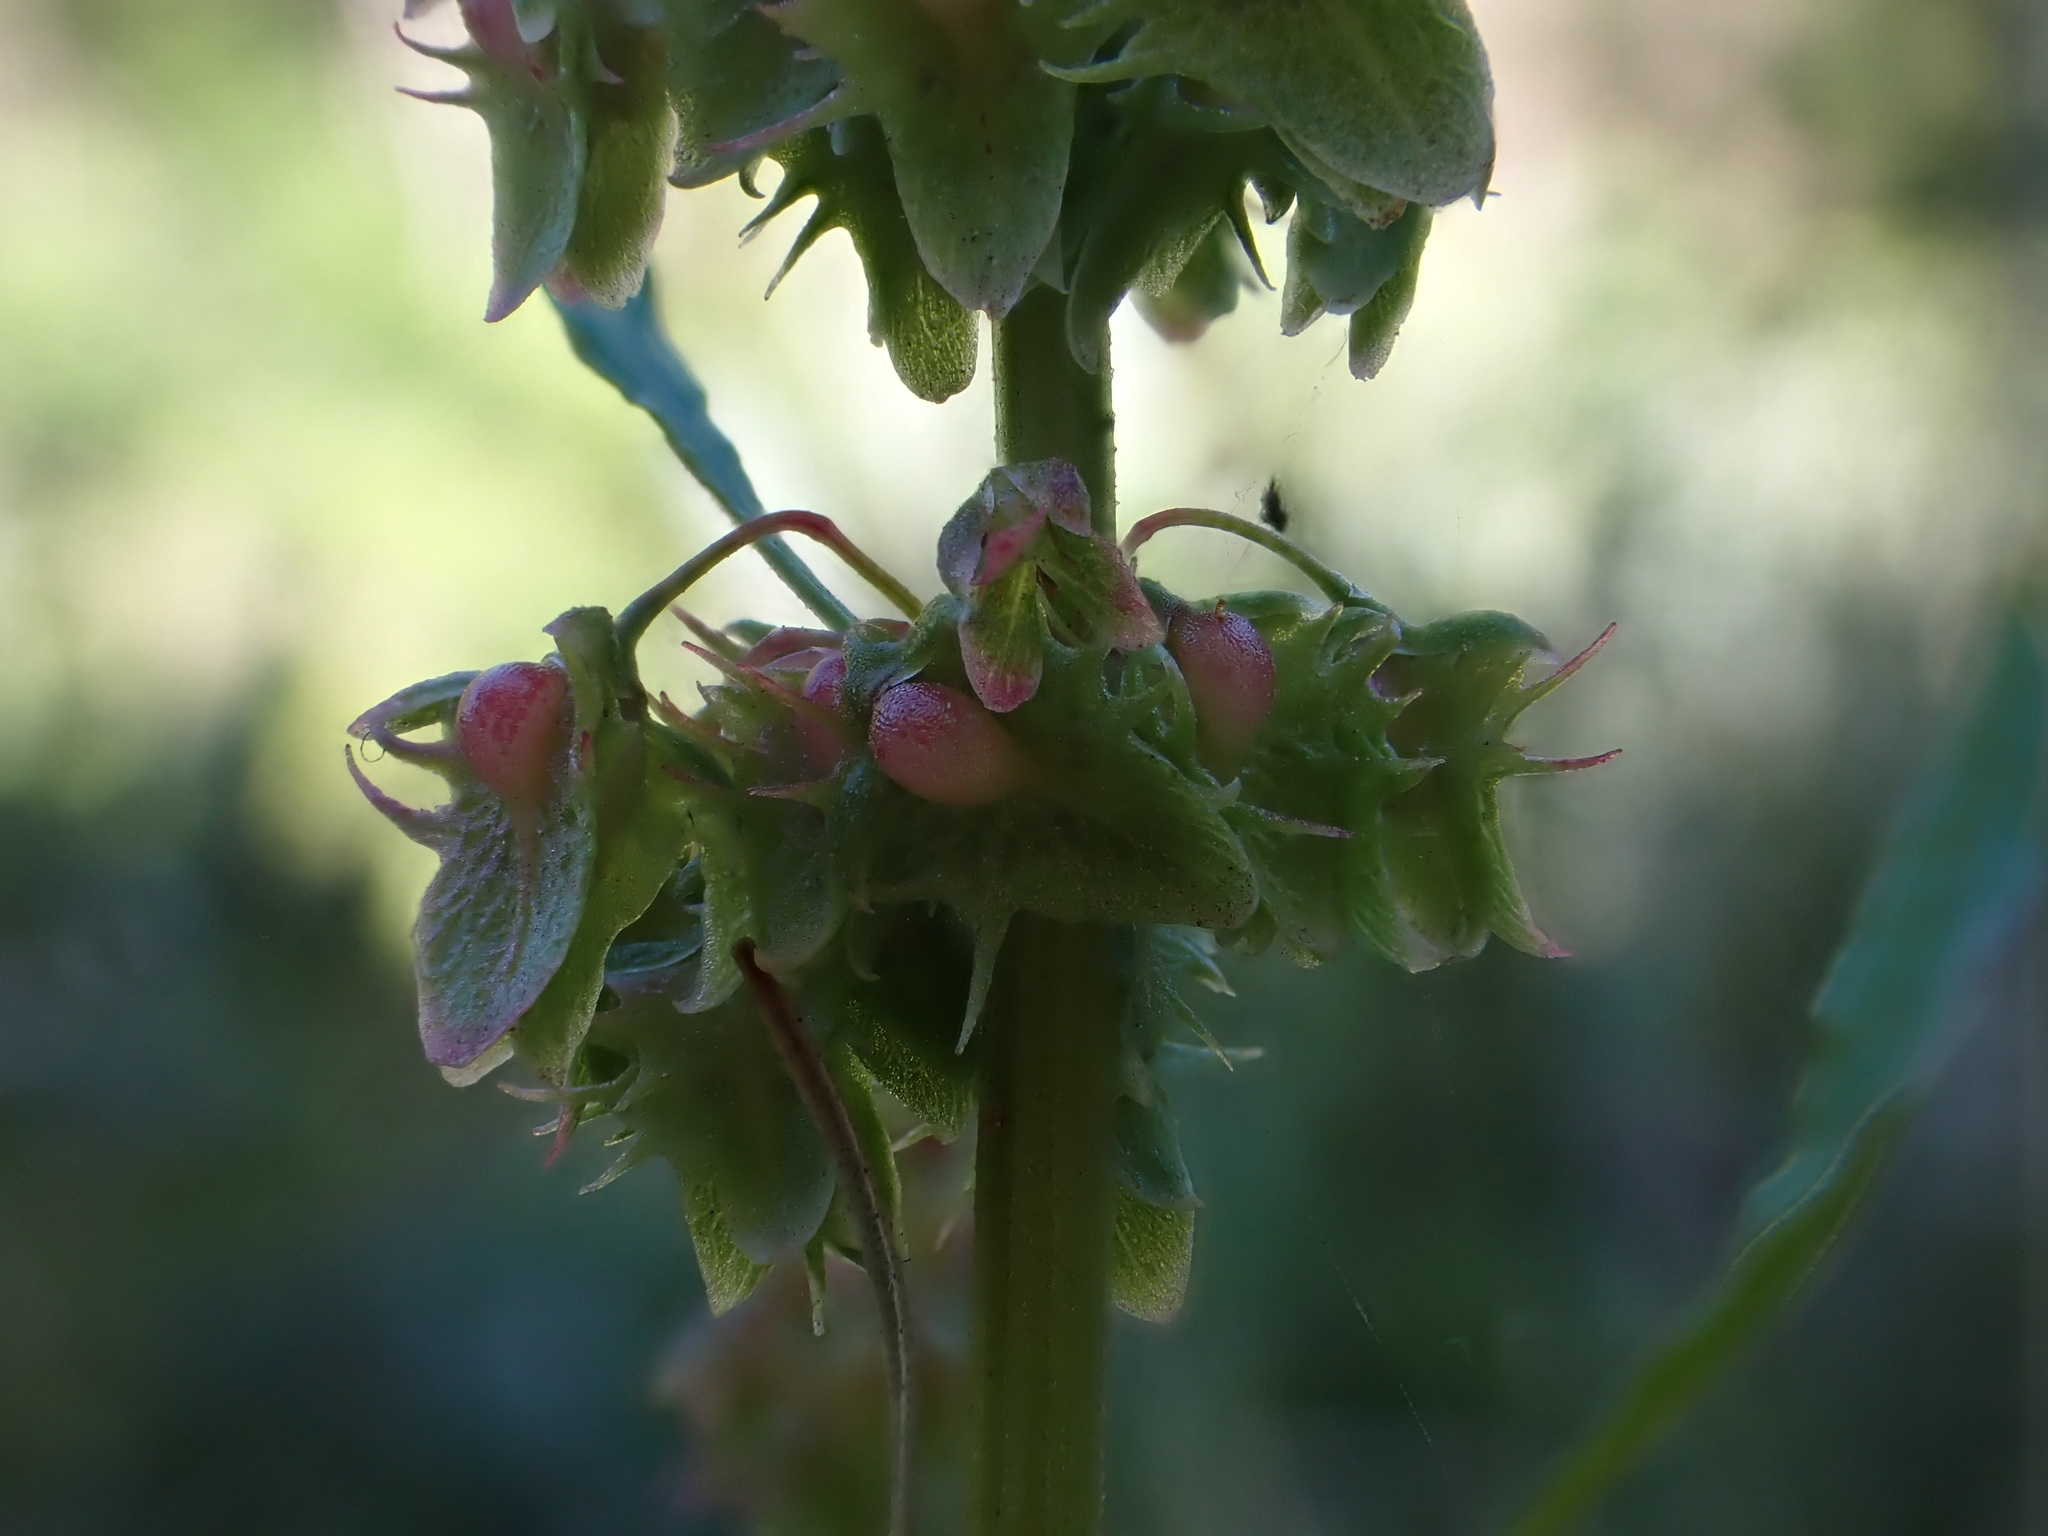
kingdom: Plantae
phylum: Tracheophyta
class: Magnoliopsida
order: Caryophyllales
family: Polygonaceae
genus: Rumex
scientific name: Rumex obtusifolius
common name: Bitter dock
